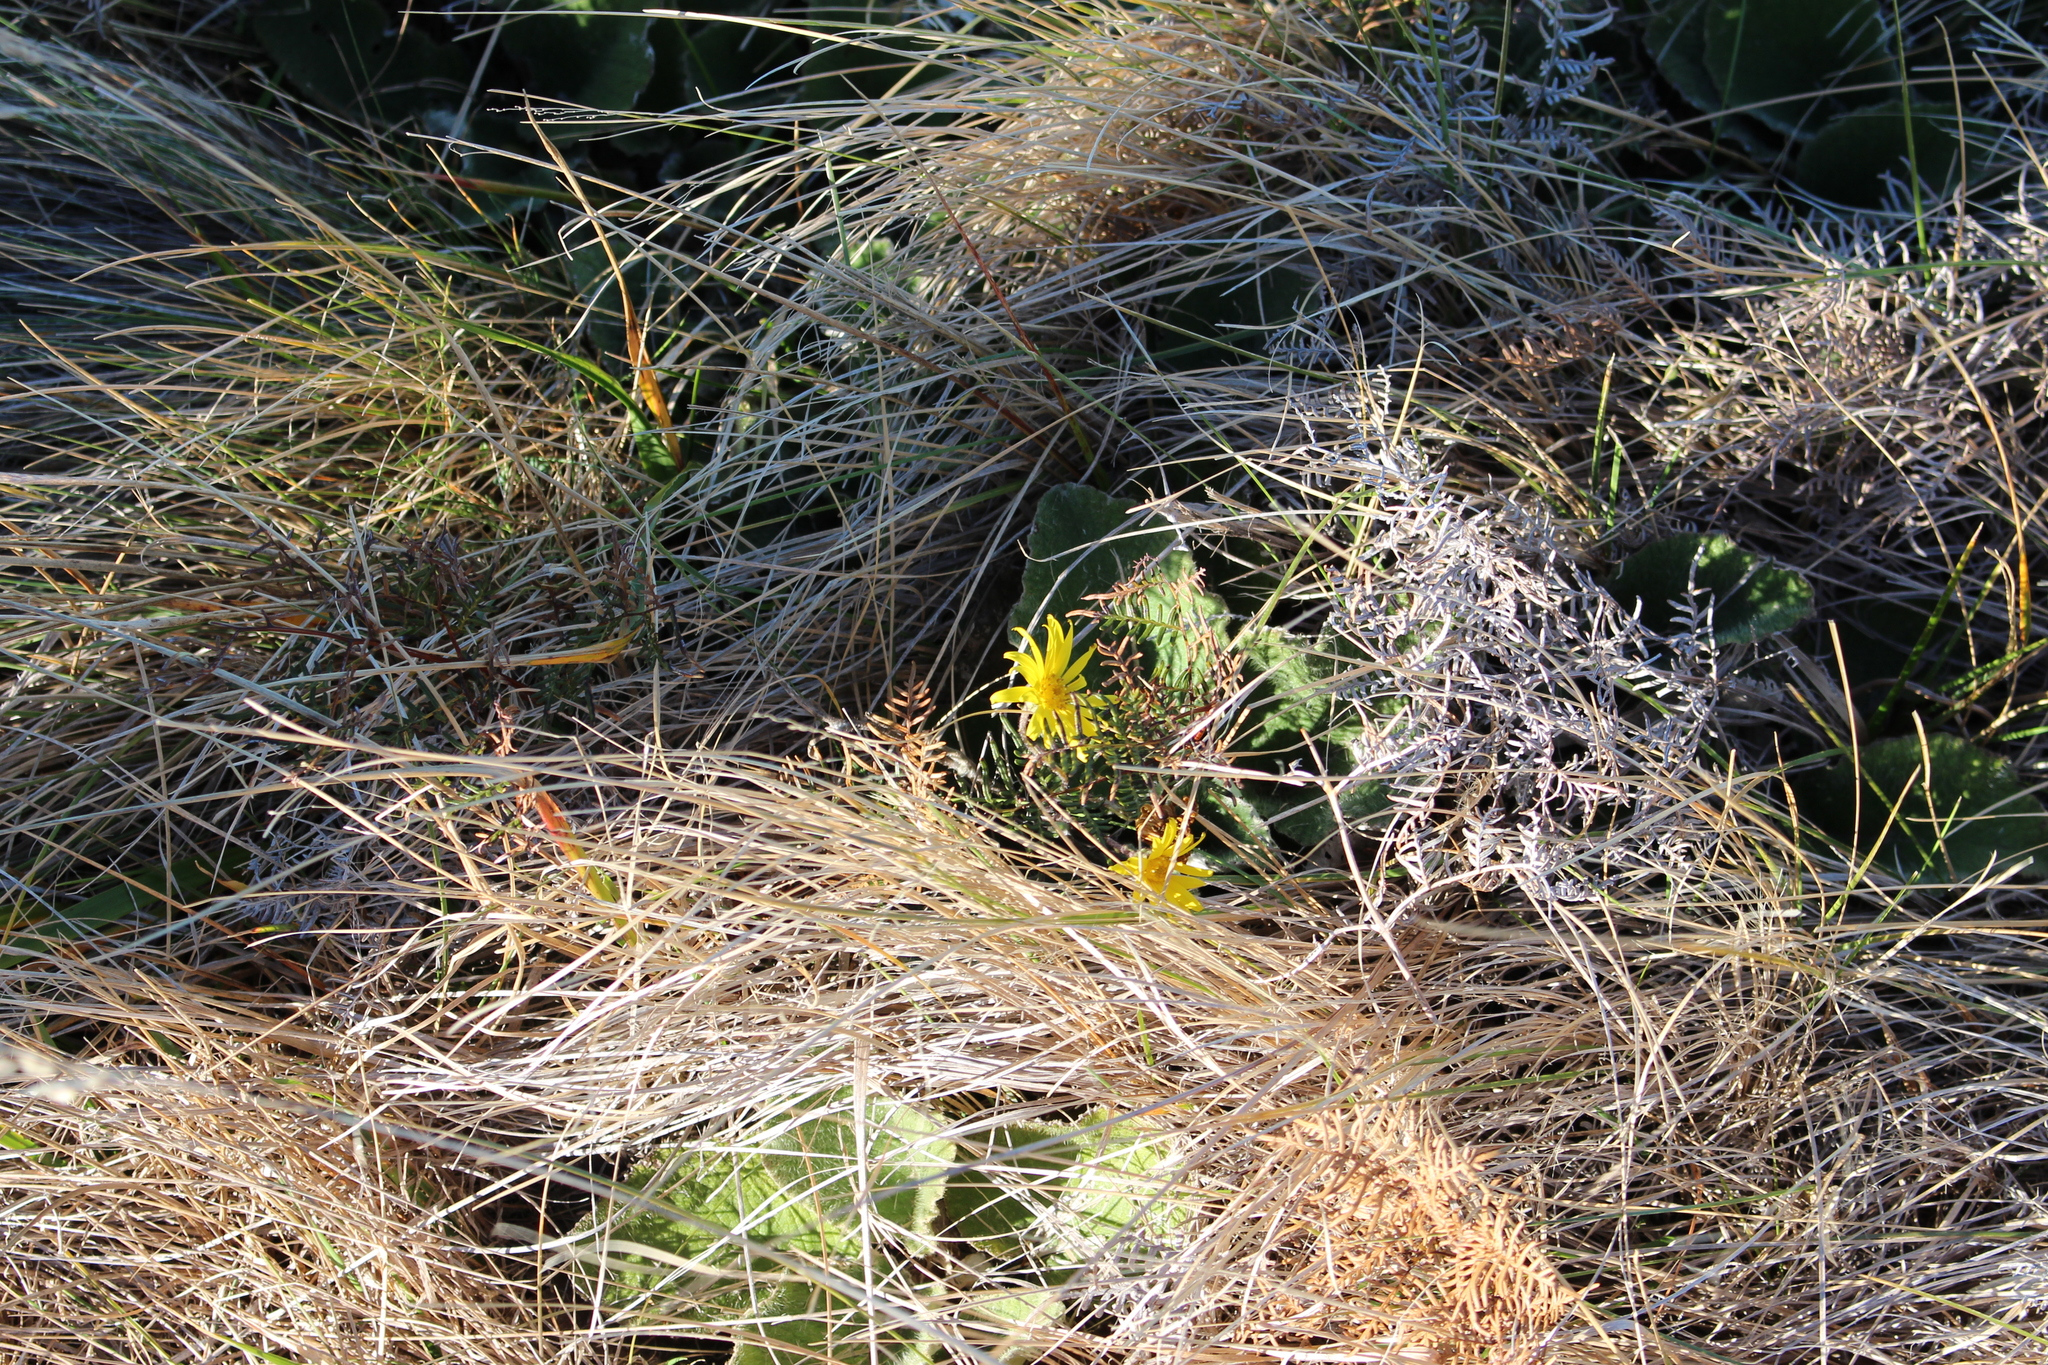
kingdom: Plantae
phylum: Tracheophyta
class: Magnoliopsida
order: Asterales
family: Asteraceae
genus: Brachyglottis
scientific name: Brachyglottis lagopus
